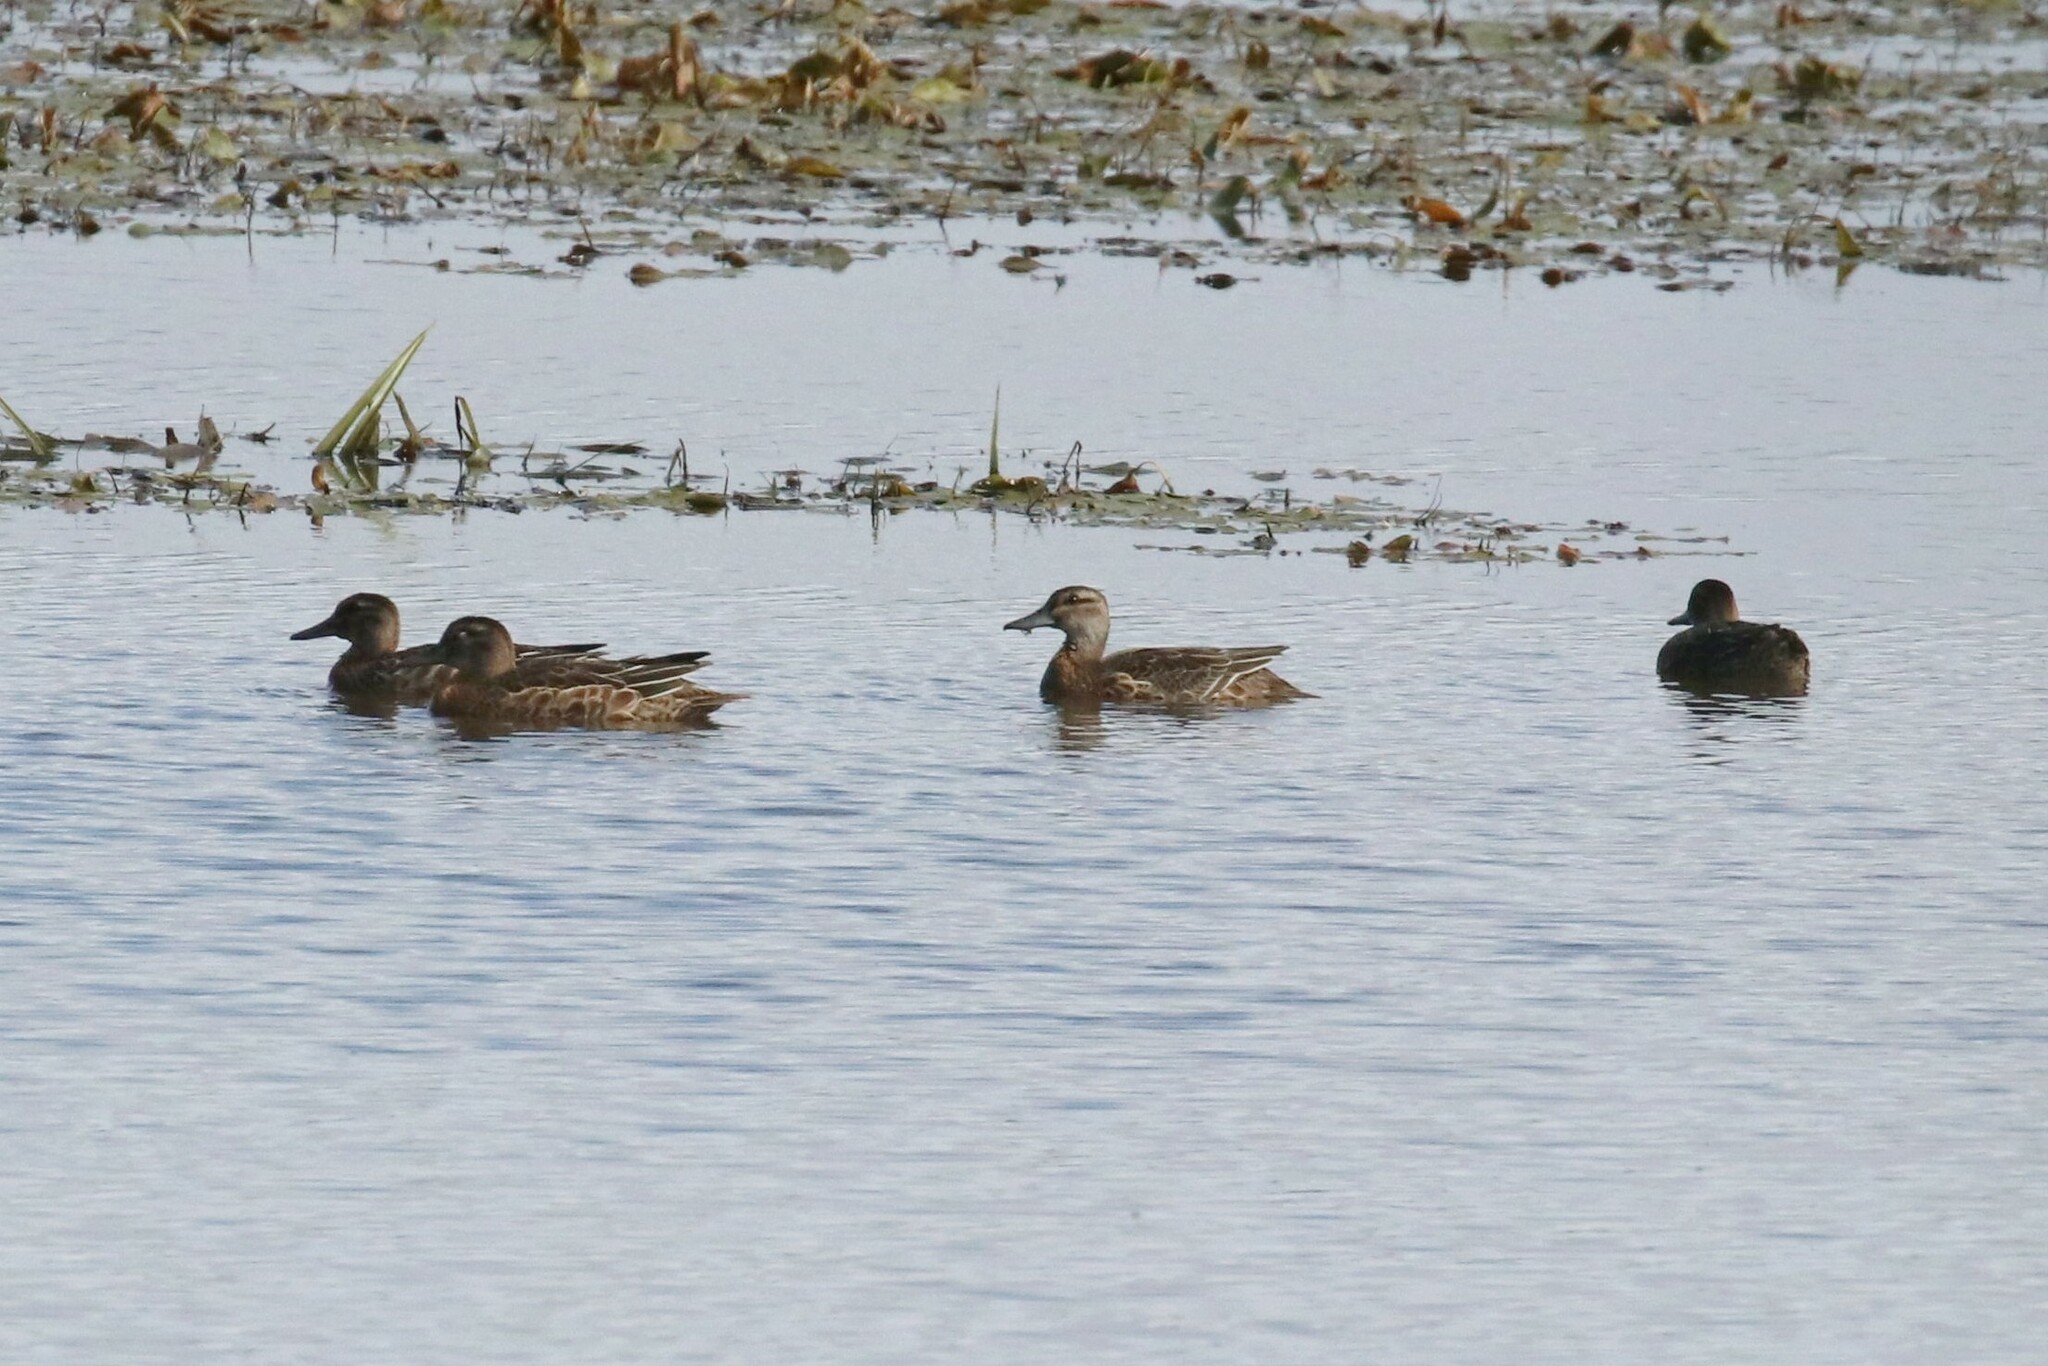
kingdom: Animalia
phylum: Chordata
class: Aves
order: Anseriformes
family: Anatidae
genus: Spatula
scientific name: Spatula querquedula
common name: Garganey
